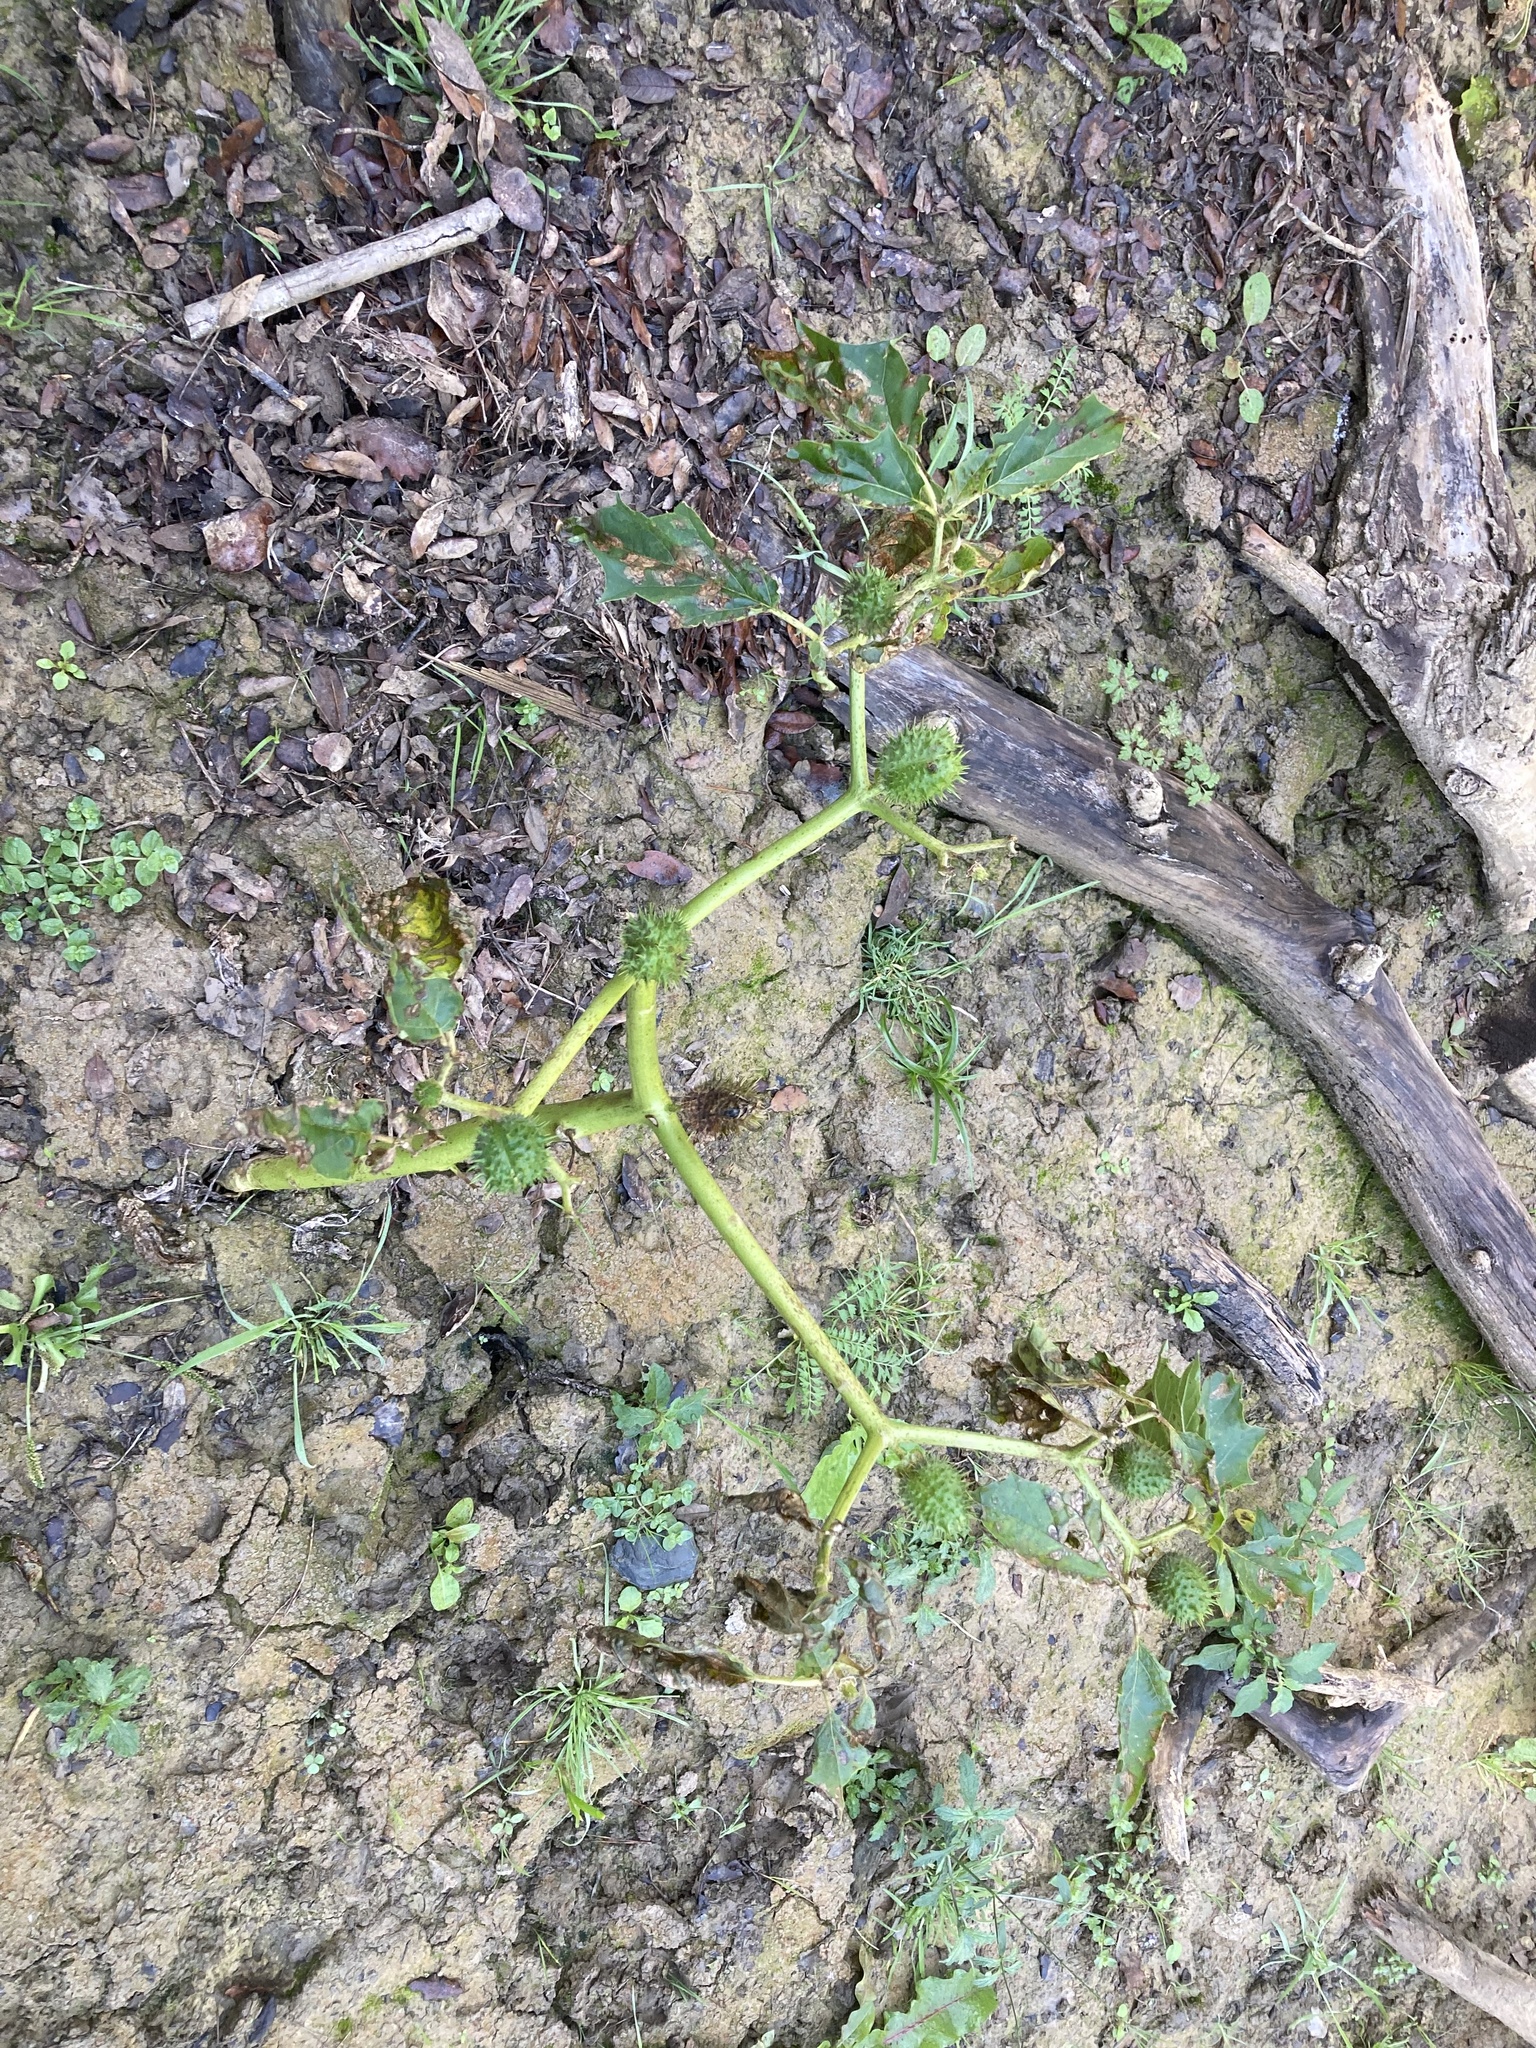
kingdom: Plantae
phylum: Tracheophyta
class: Magnoliopsida
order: Solanales
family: Solanaceae
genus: Datura
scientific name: Datura stramonium
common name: Thorn-apple
